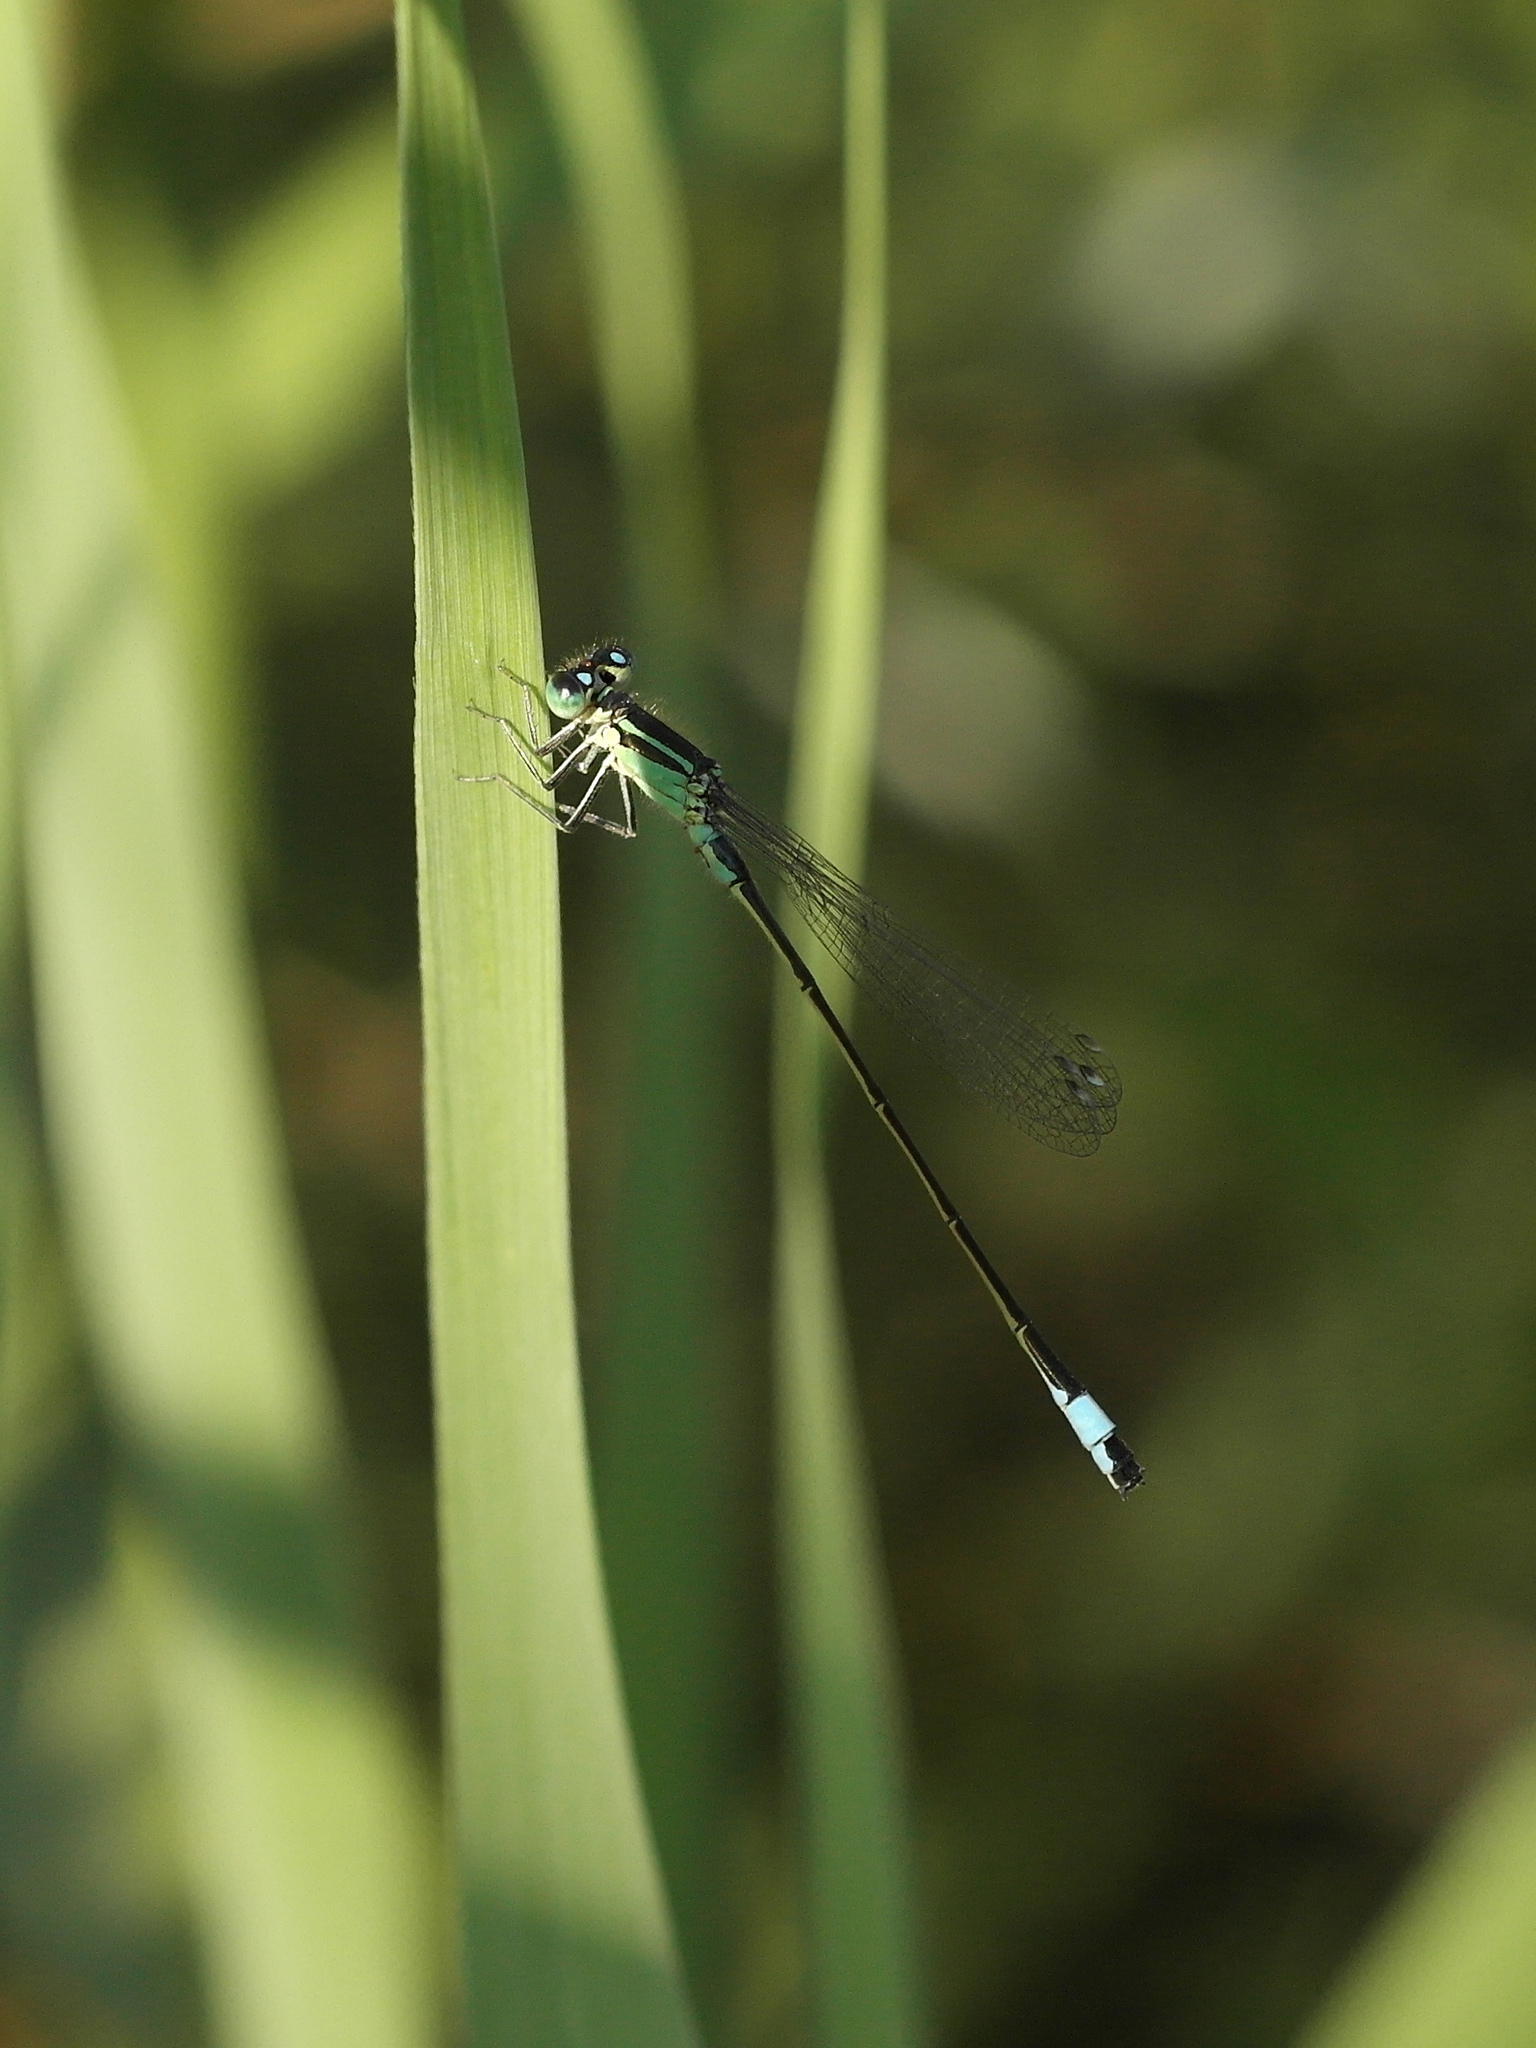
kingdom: Animalia
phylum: Arthropoda
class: Insecta
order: Odonata
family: Coenagrionidae
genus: Ischnura
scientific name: Ischnura elegans
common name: Blue-tailed damselfly
